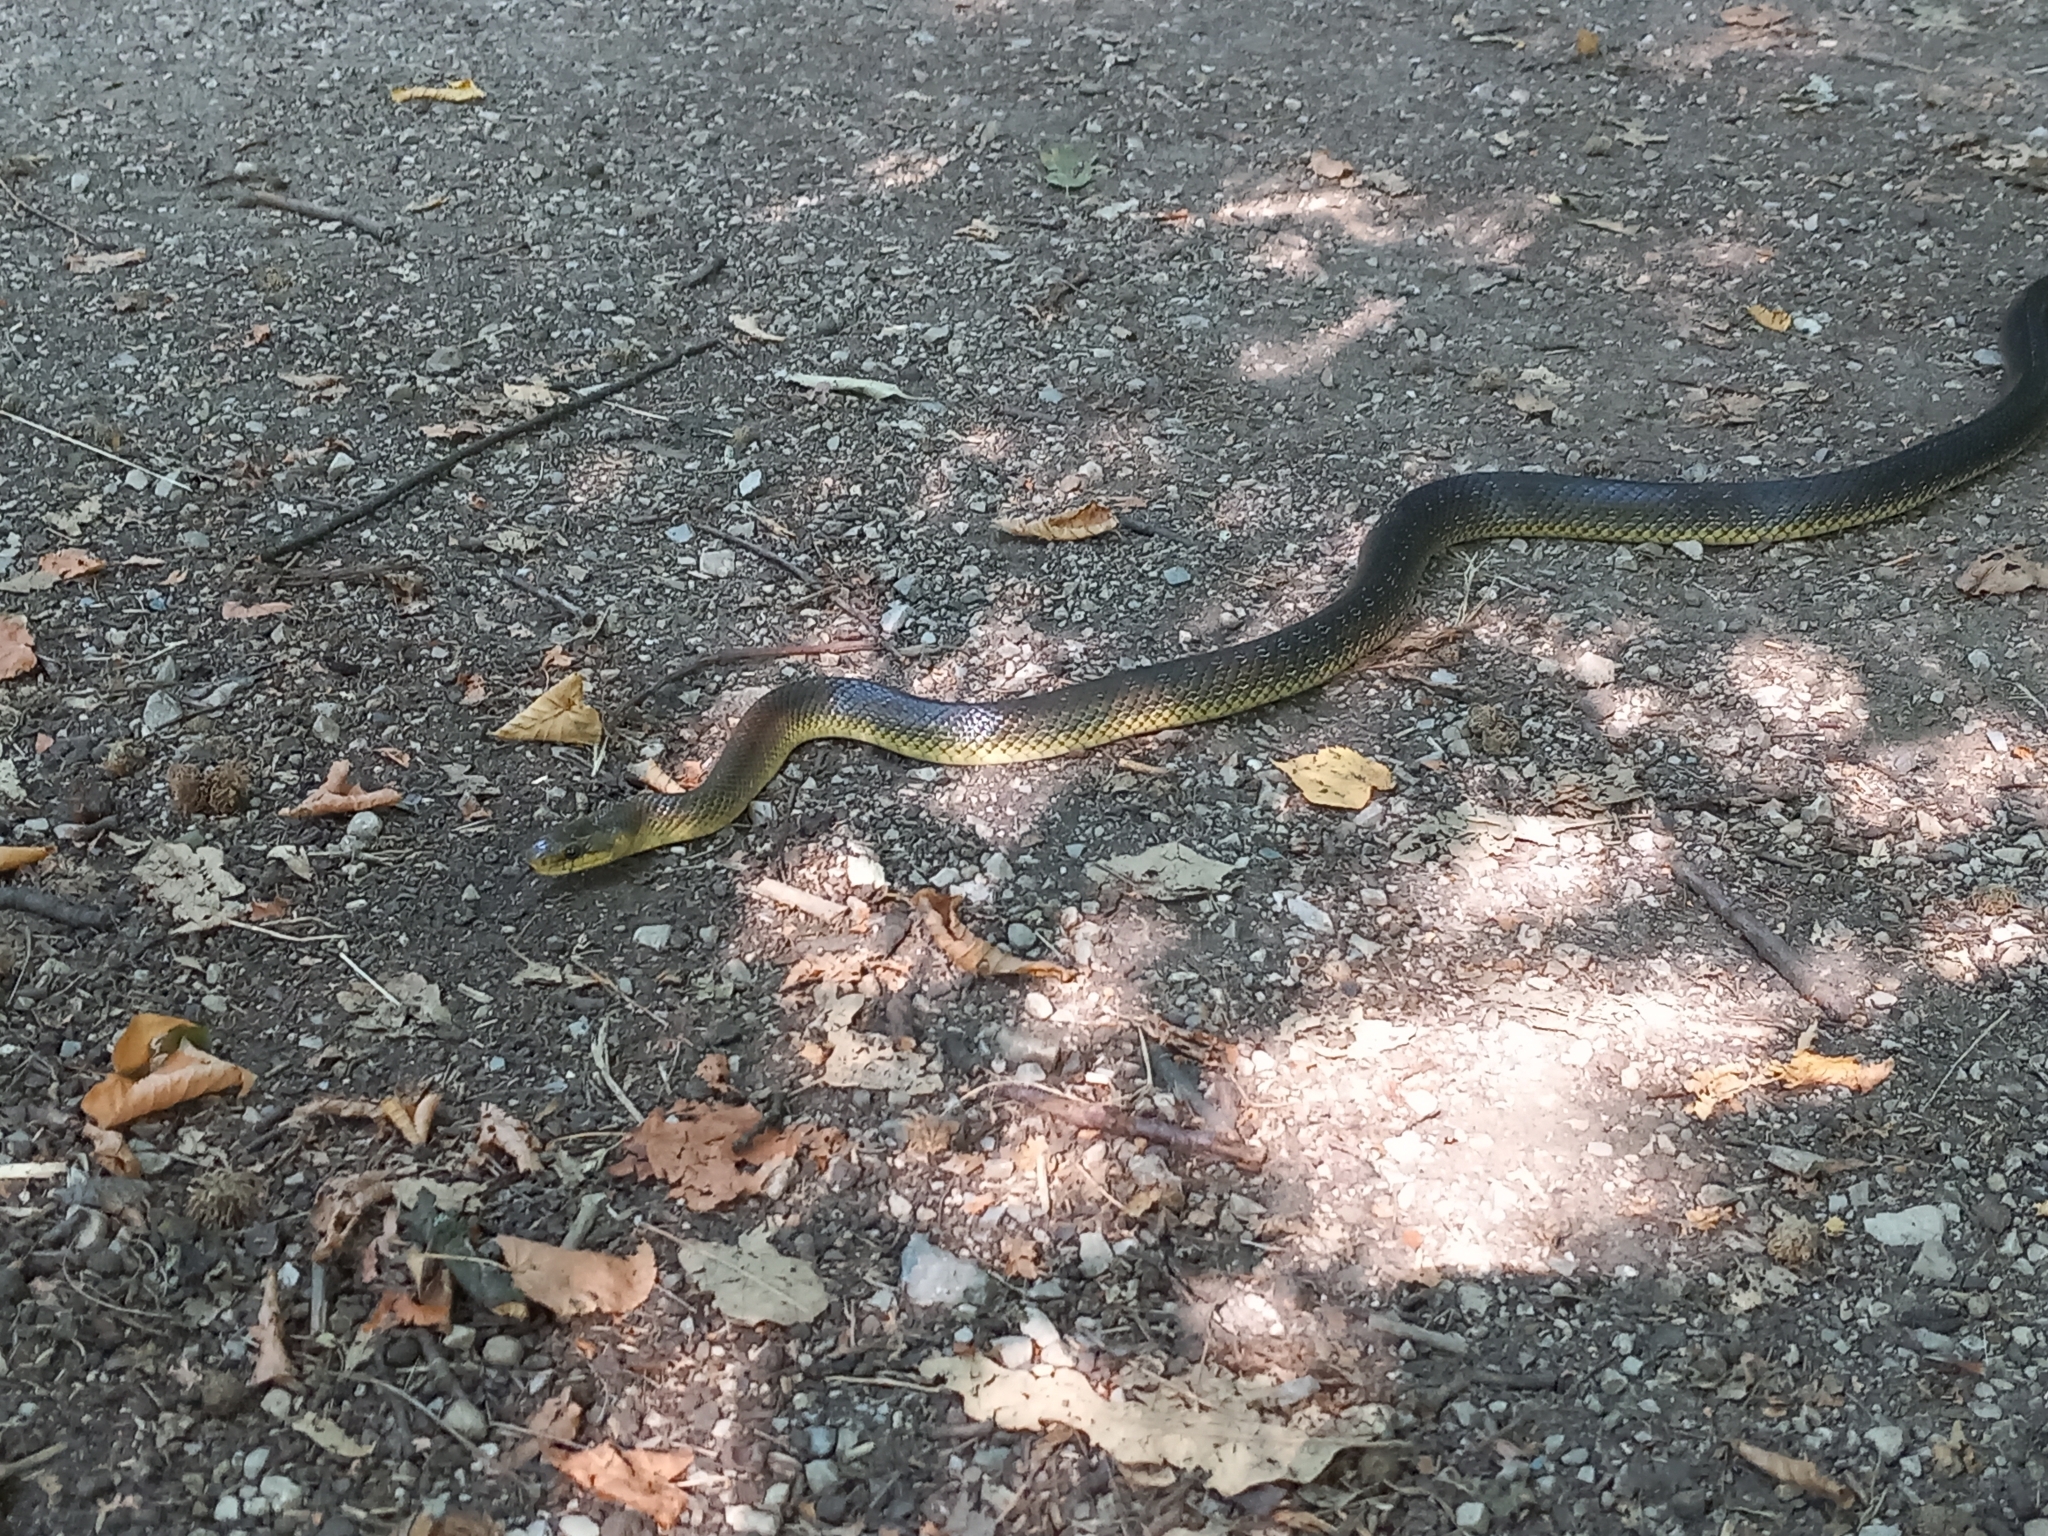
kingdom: Animalia
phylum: Chordata
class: Squamata
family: Colubridae
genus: Zamenis
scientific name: Zamenis longissimus
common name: Aesculapean snake
